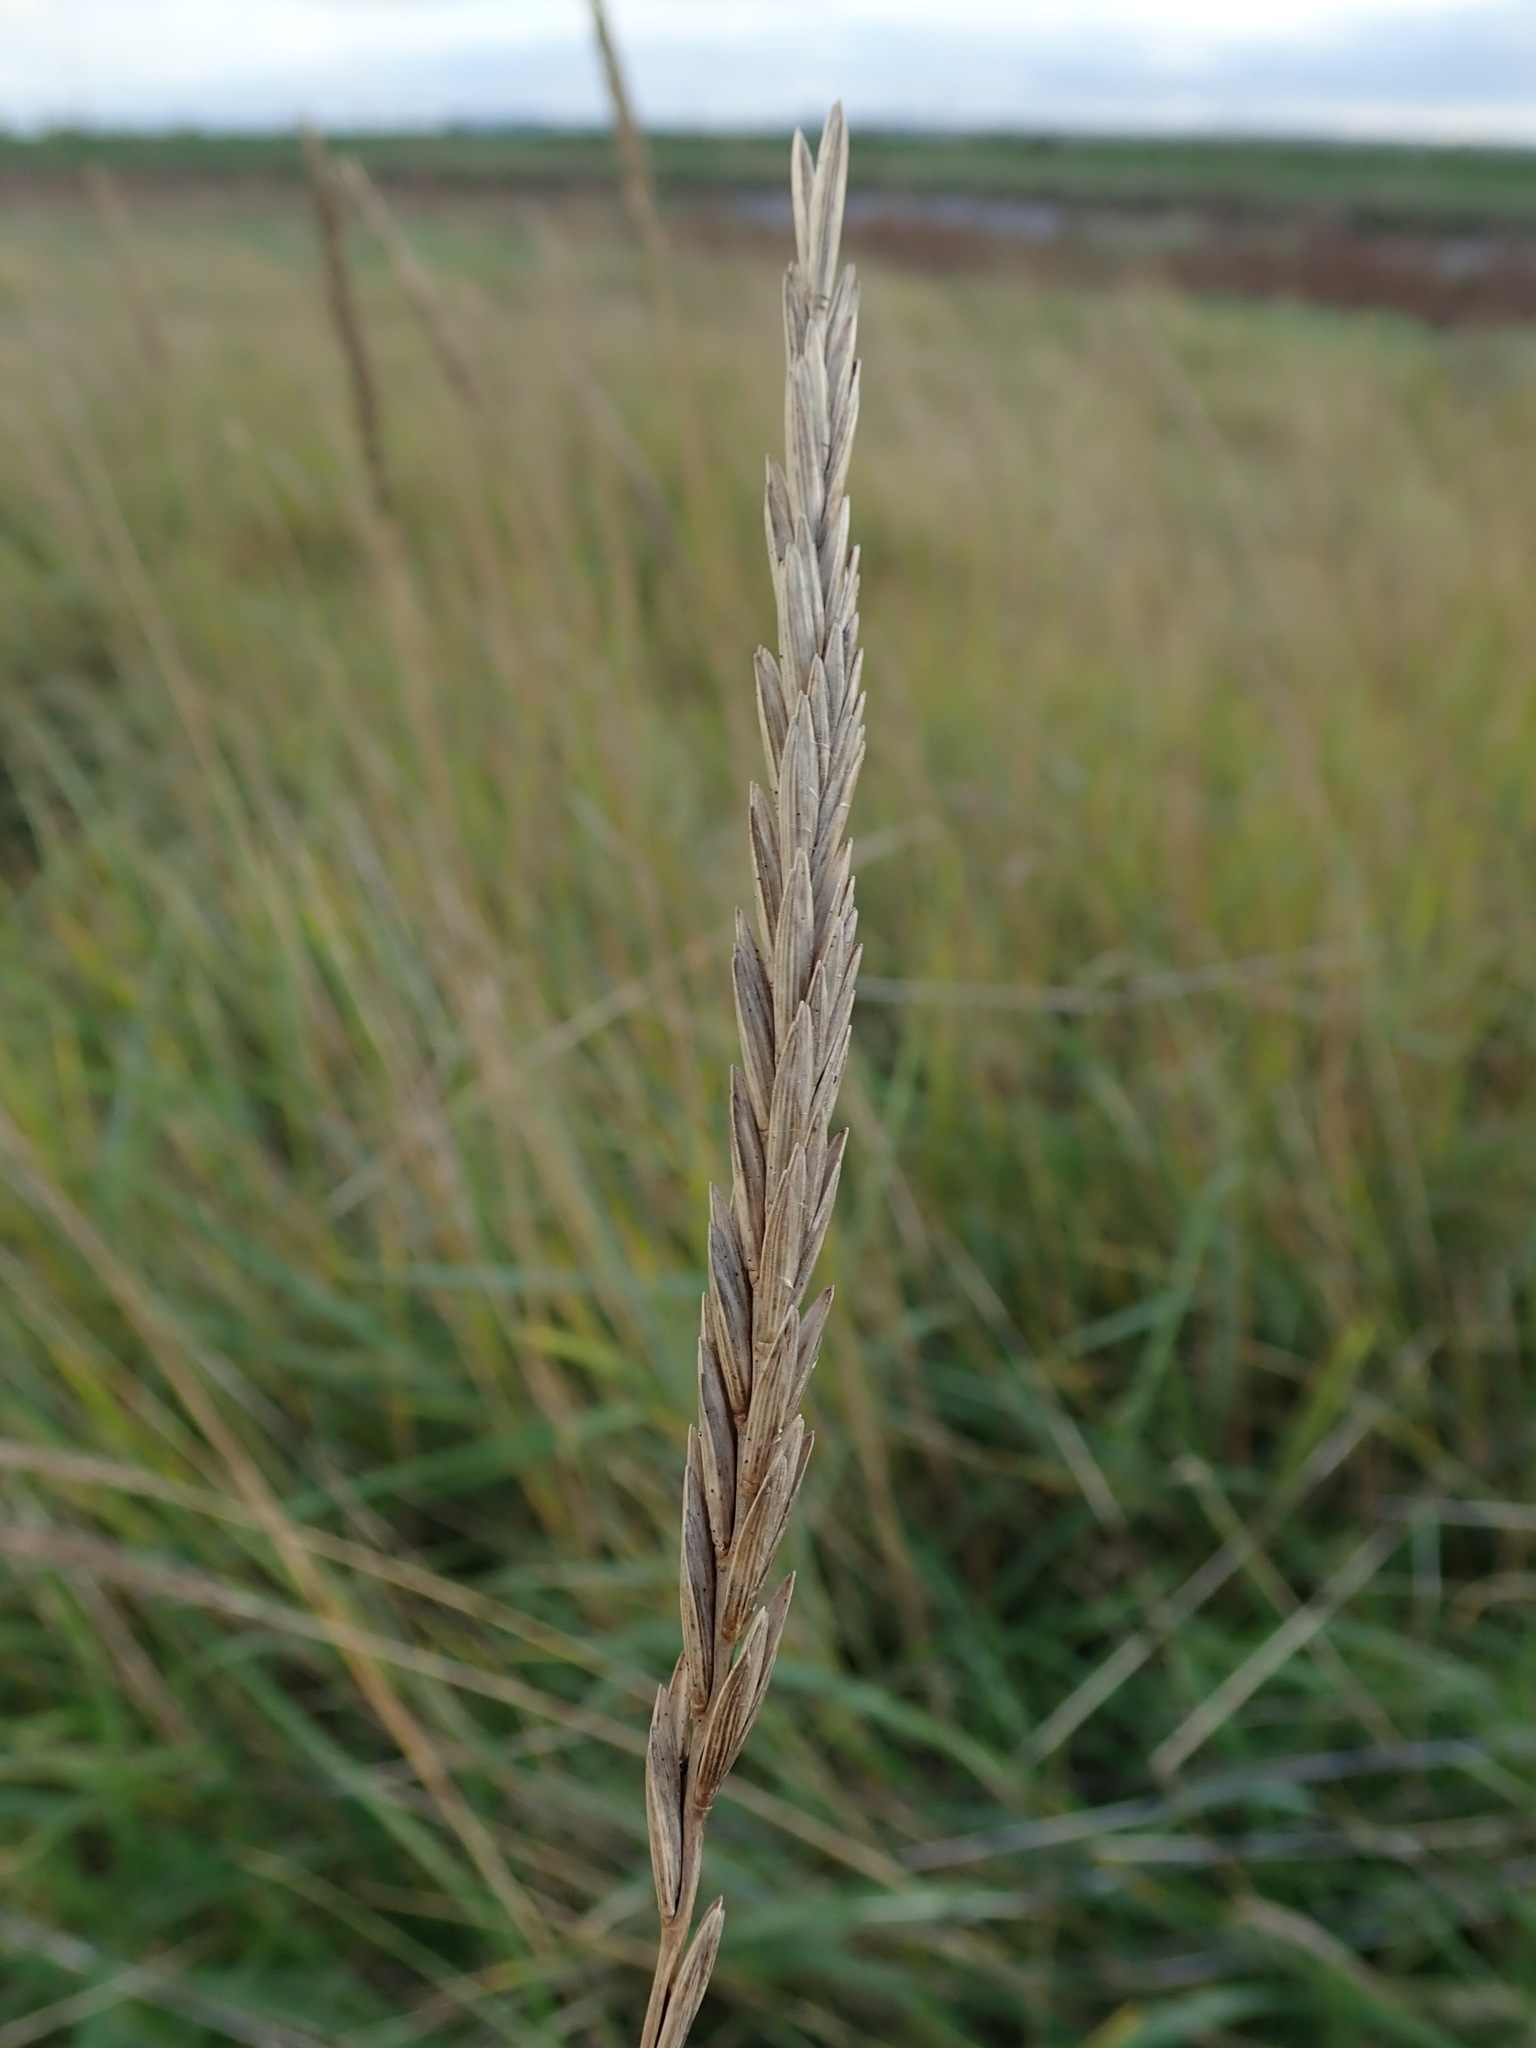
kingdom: Plantae
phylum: Tracheophyta
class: Liliopsida
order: Poales
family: Poaceae
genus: Elymus
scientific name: Elymus athericus
